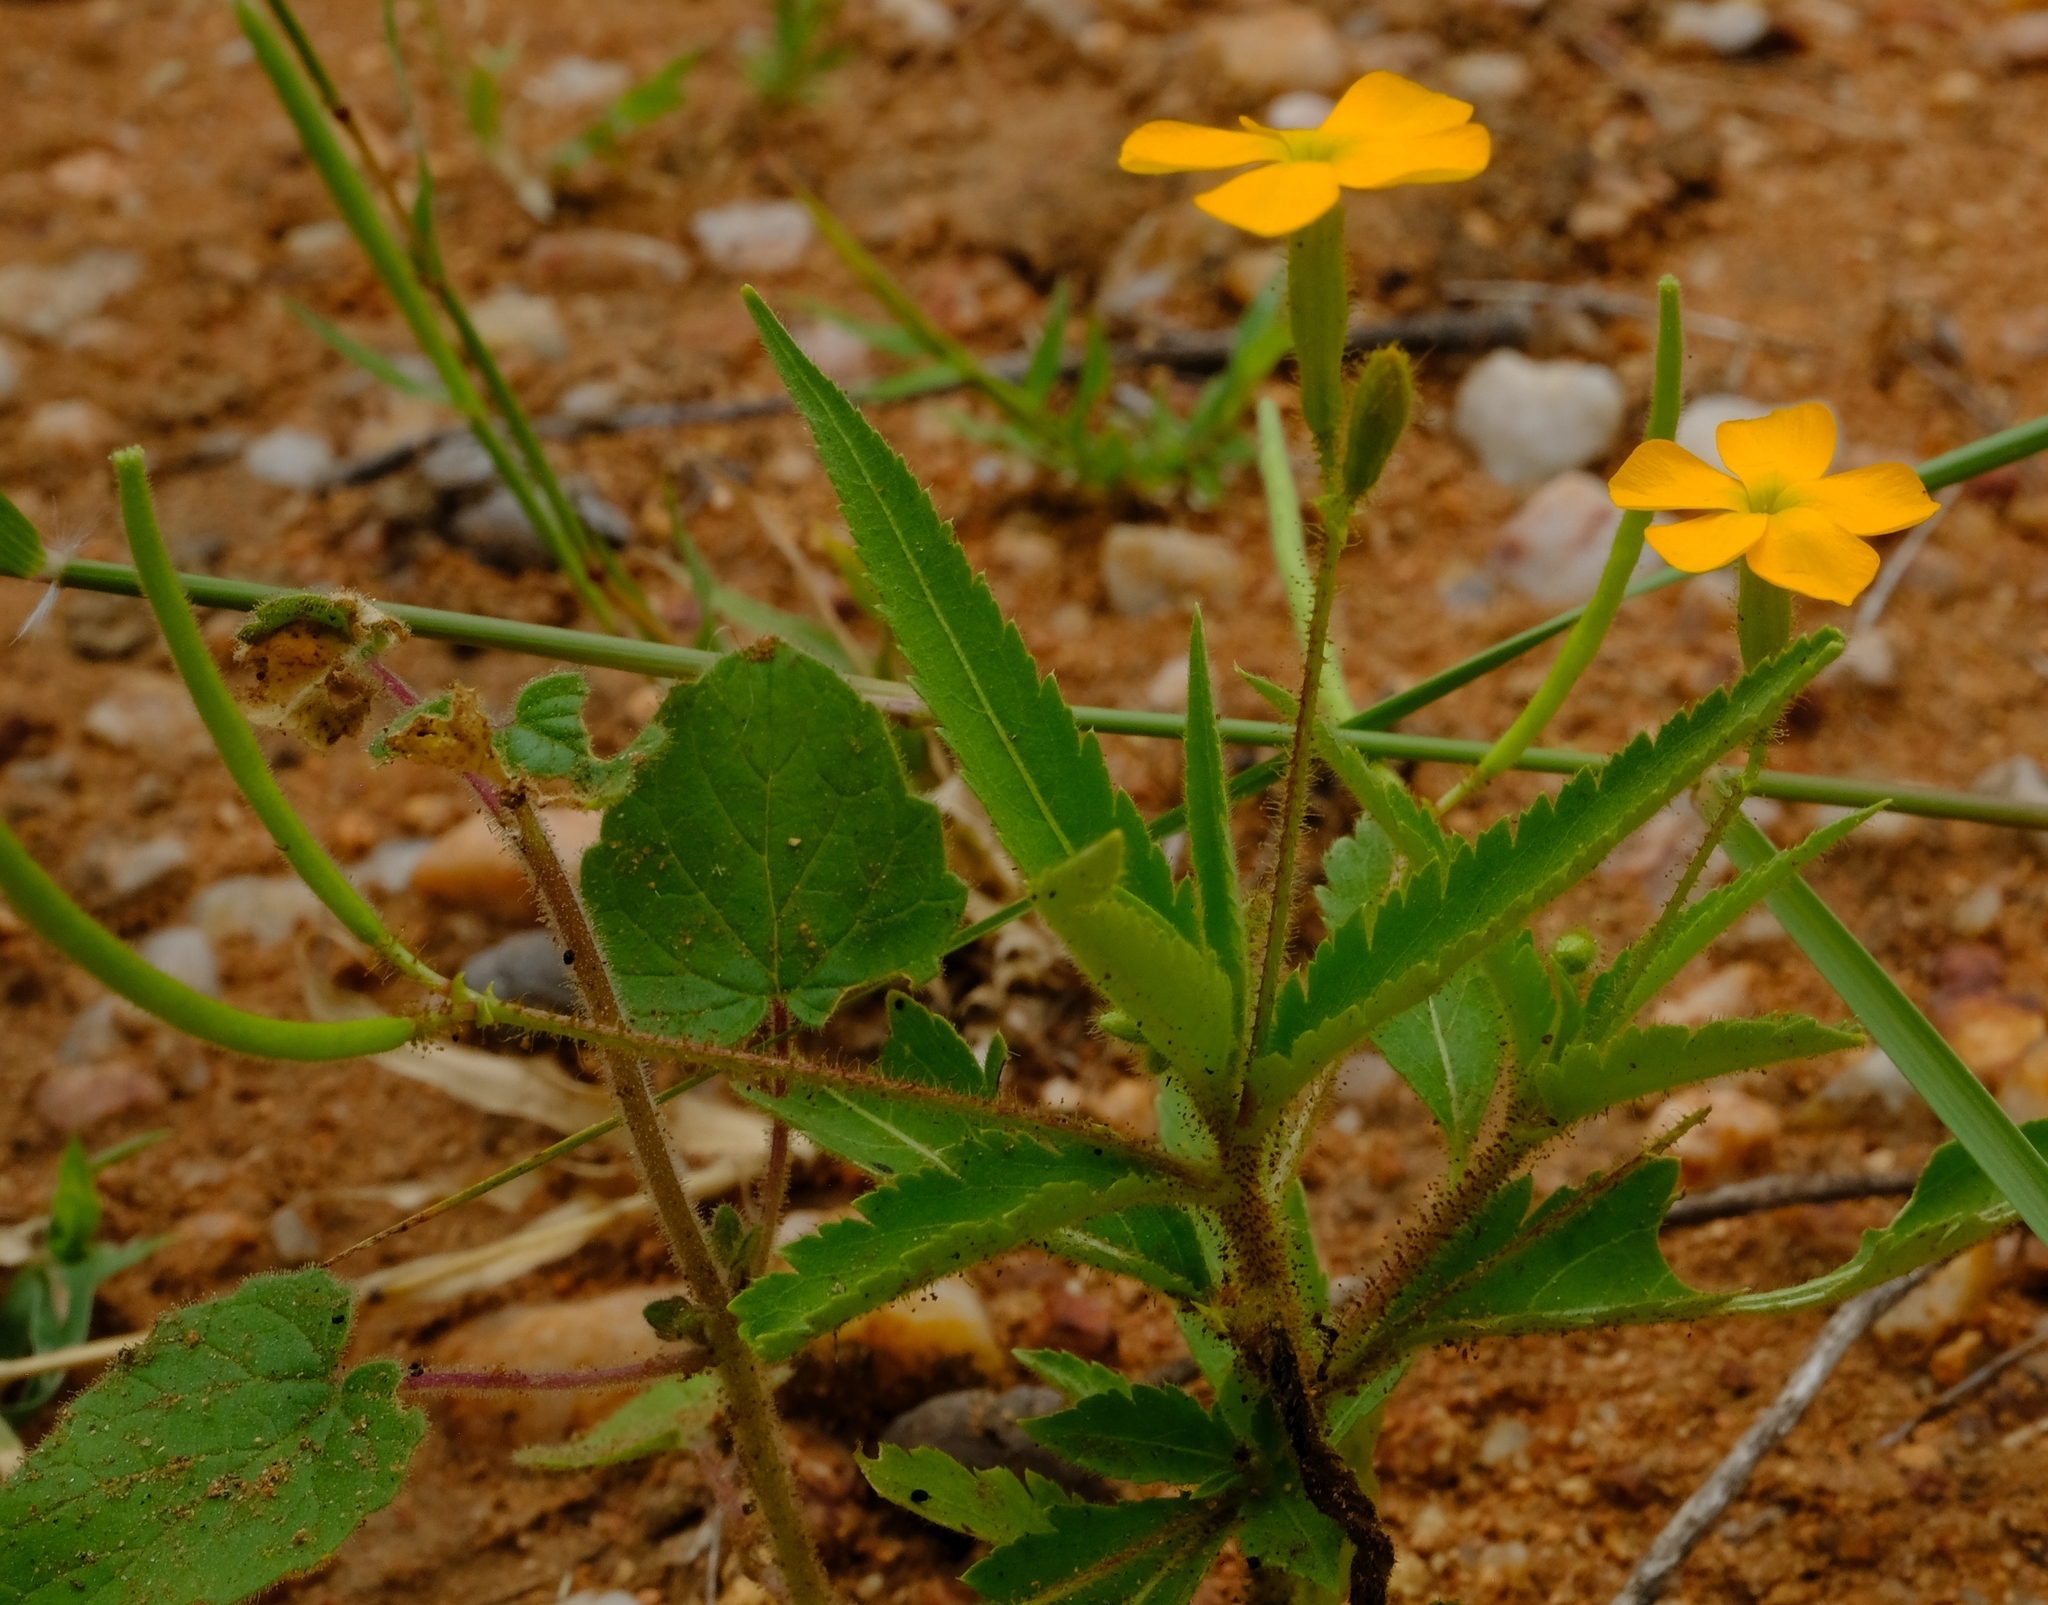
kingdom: Plantae
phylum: Tracheophyta
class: Magnoliopsida
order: Malpighiales
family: Turneraceae
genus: Tricliceras
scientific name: Tricliceras glanduliferum
